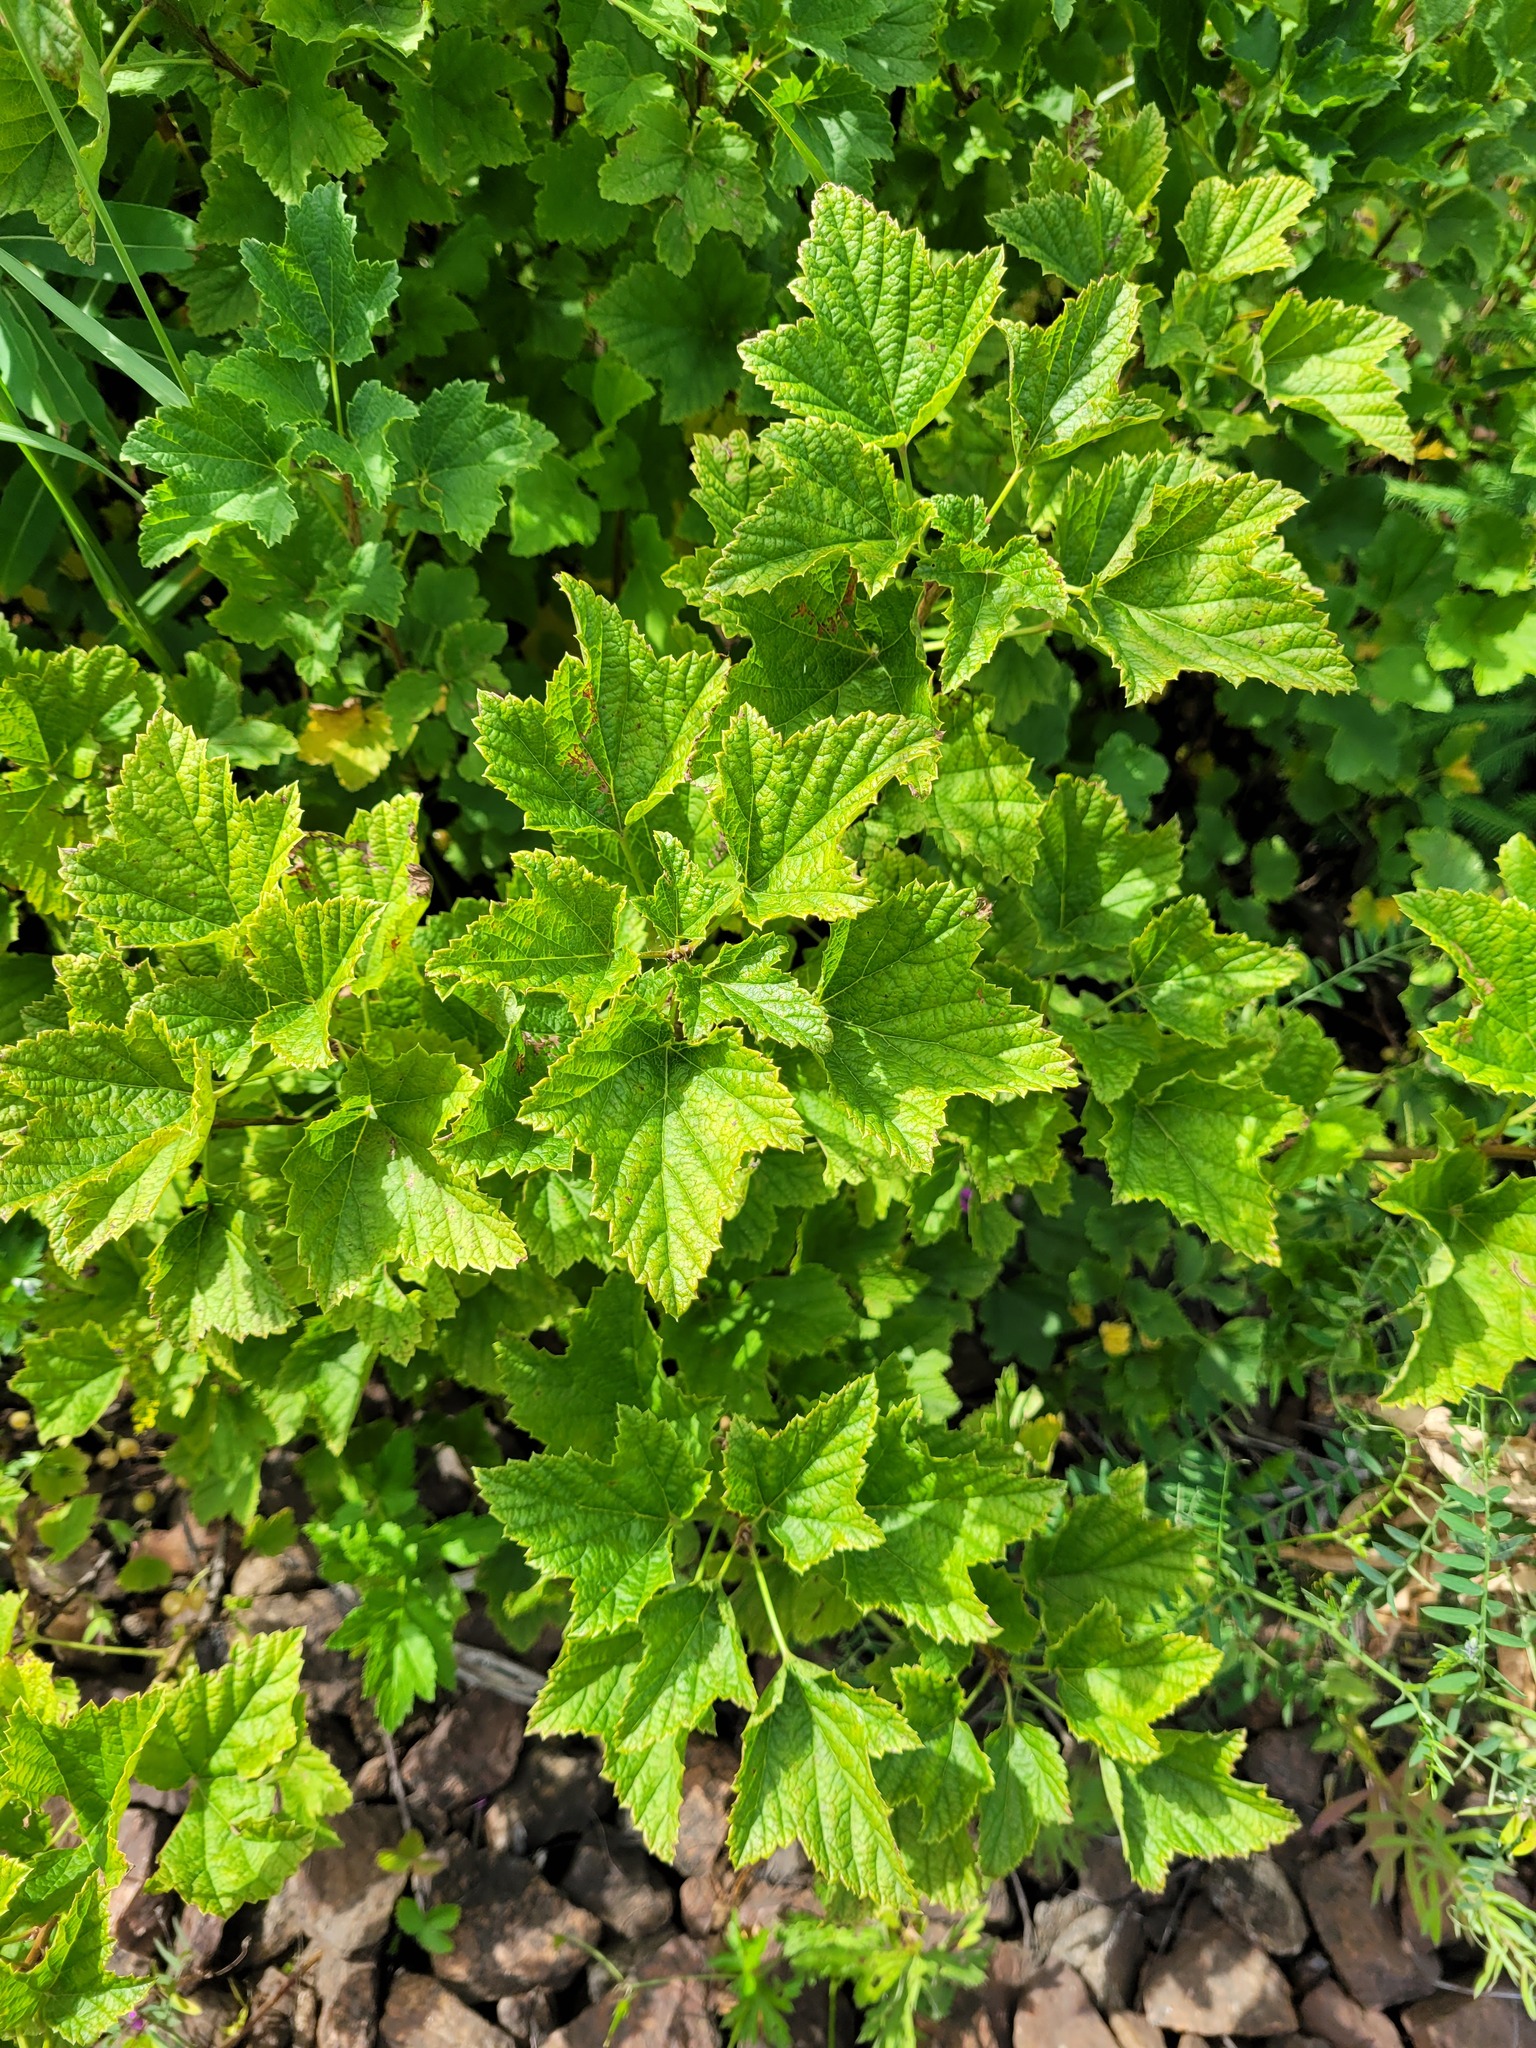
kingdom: Plantae
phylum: Tracheophyta
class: Magnoliopsida
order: Saxifragales
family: Grossulariaceae
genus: Ribes
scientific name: Ribes rubrum
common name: Red currant
